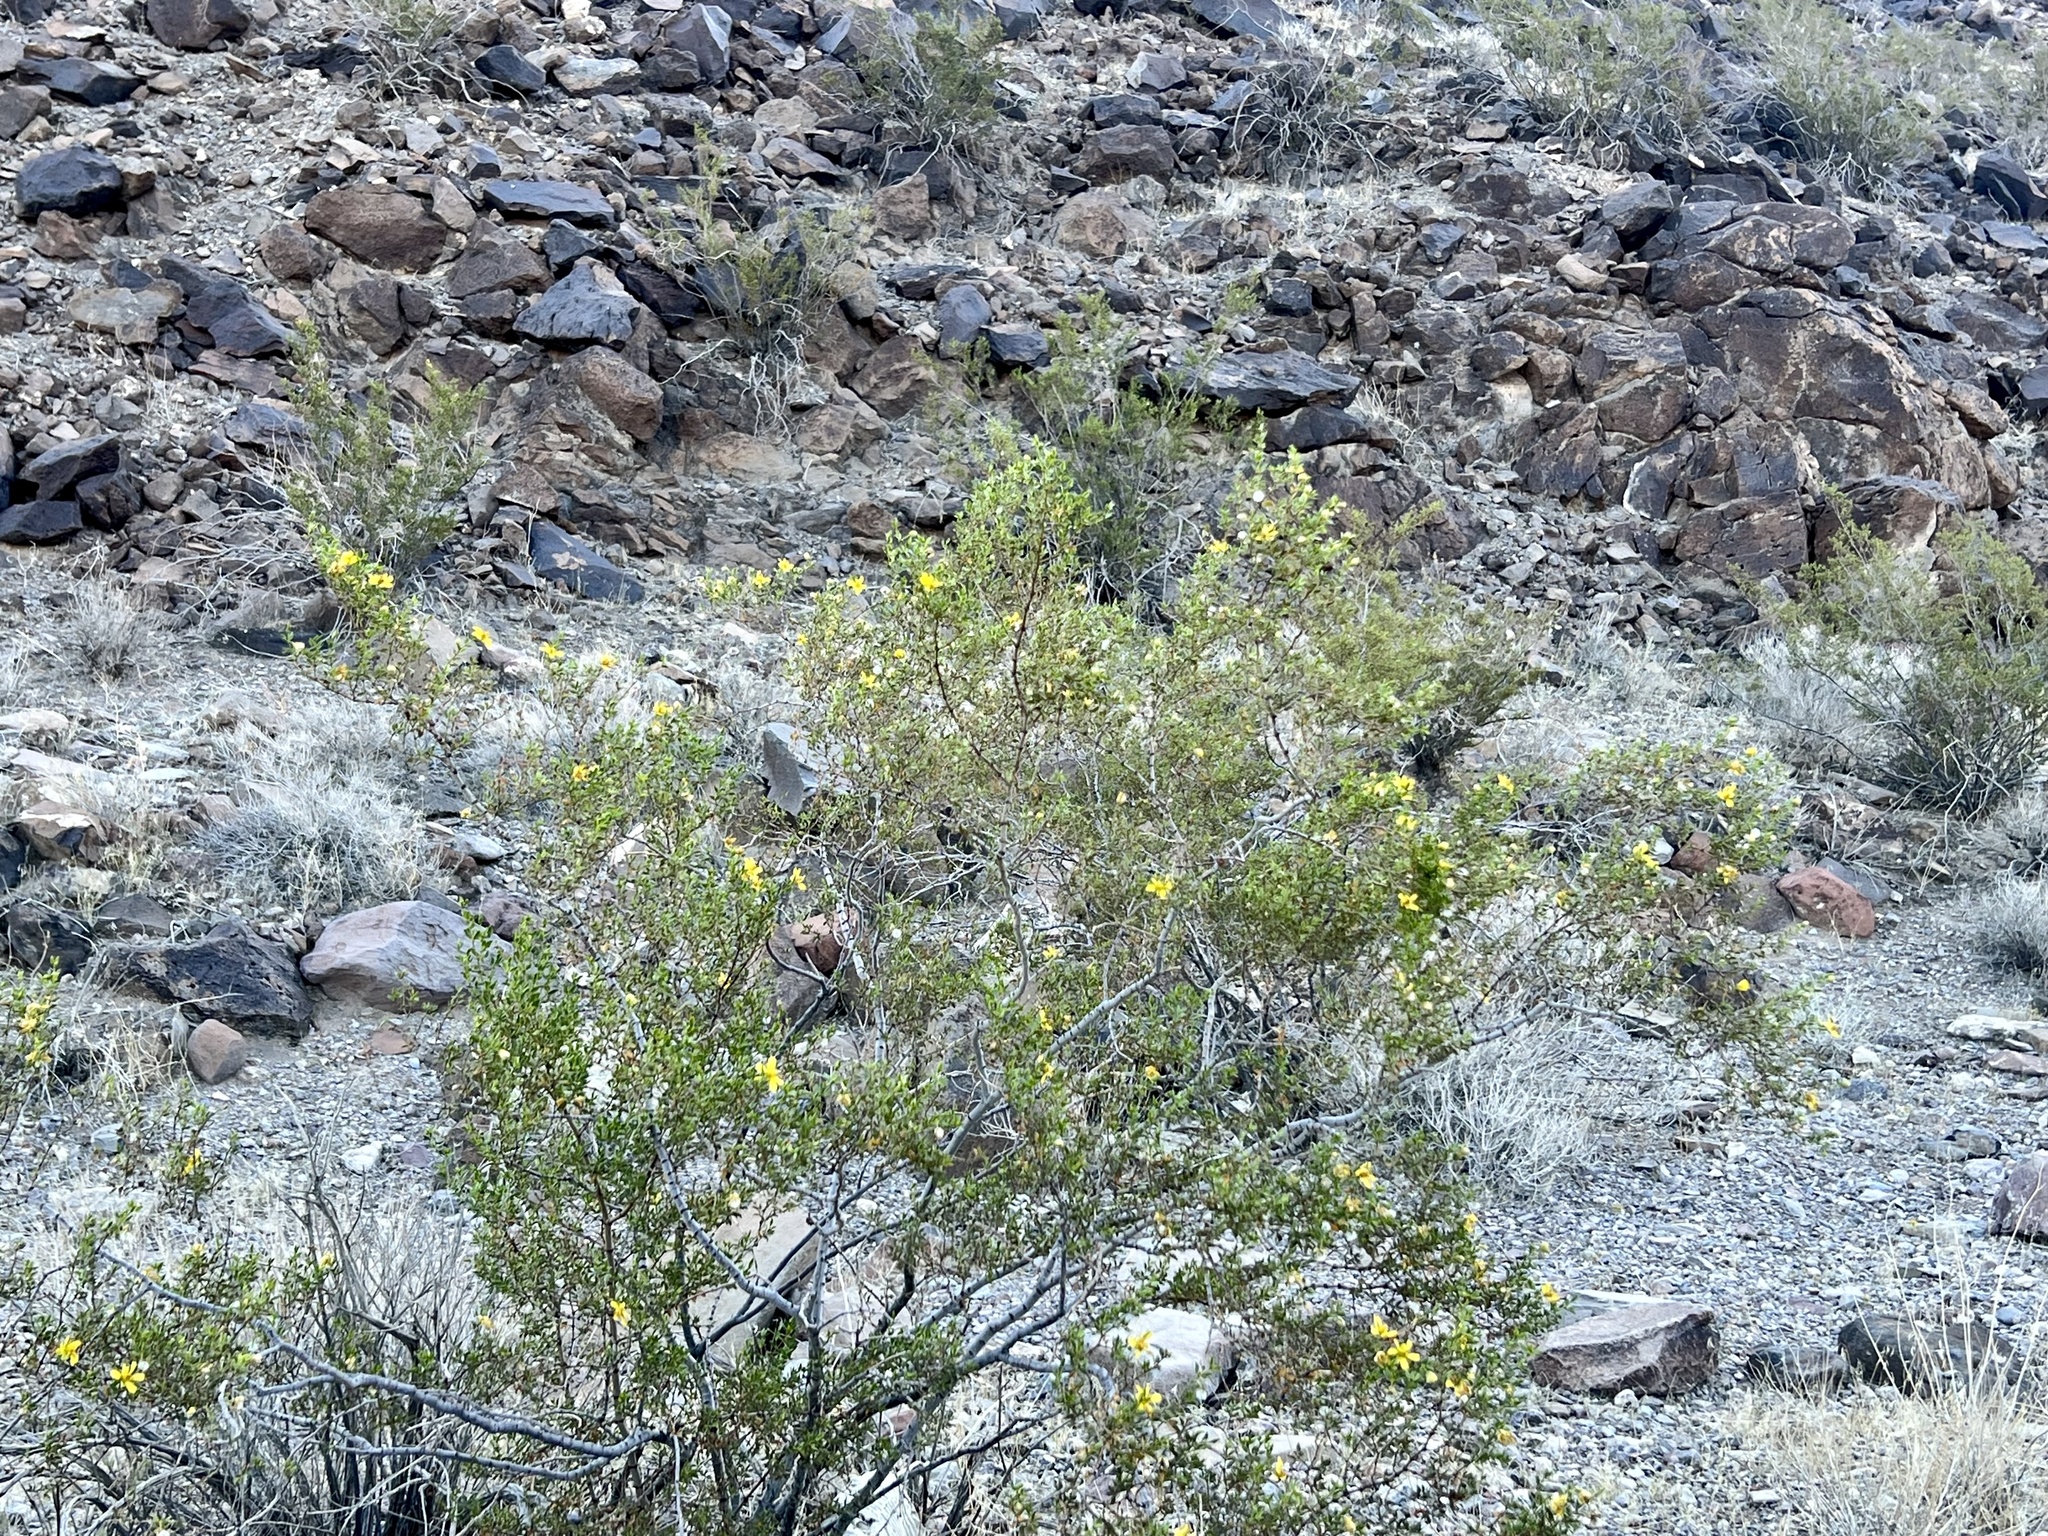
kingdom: Plantae
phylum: Tracheophyta
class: Magnoliopsida
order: Zygophyllales
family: Zygophyllaceae
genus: Larrea
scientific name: Larrea tridentata
